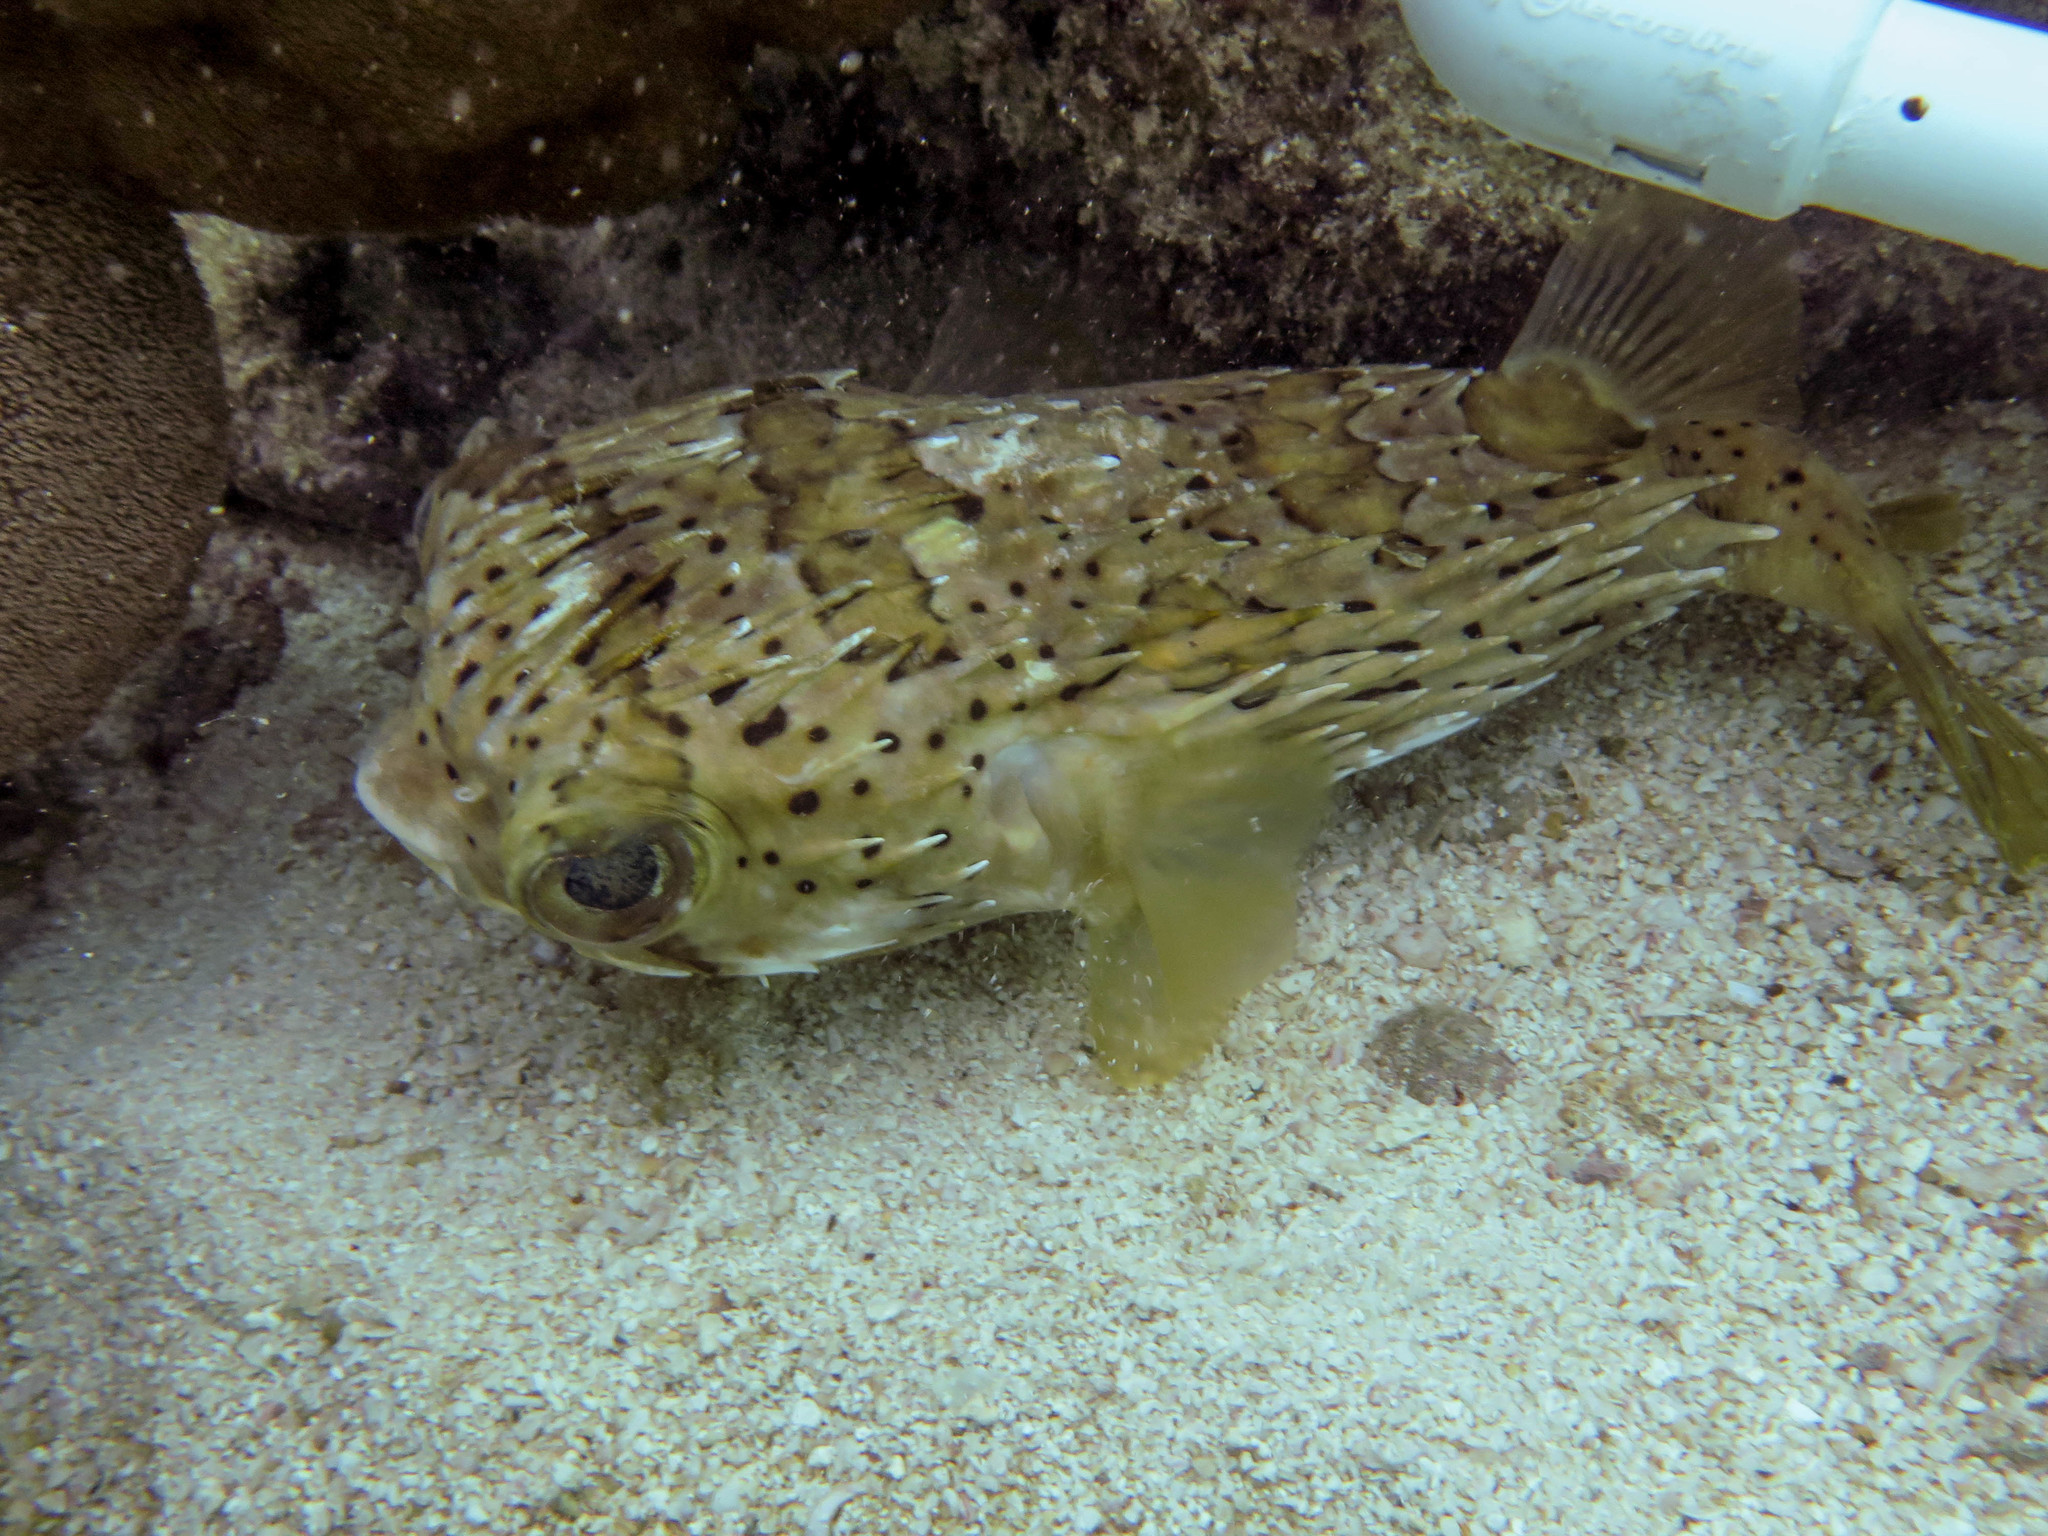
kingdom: Animalia
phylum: Chordata
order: Tetraodontiformes
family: Diodontidae
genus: Diodon
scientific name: Diodon holocanthus
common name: Balloonfish
